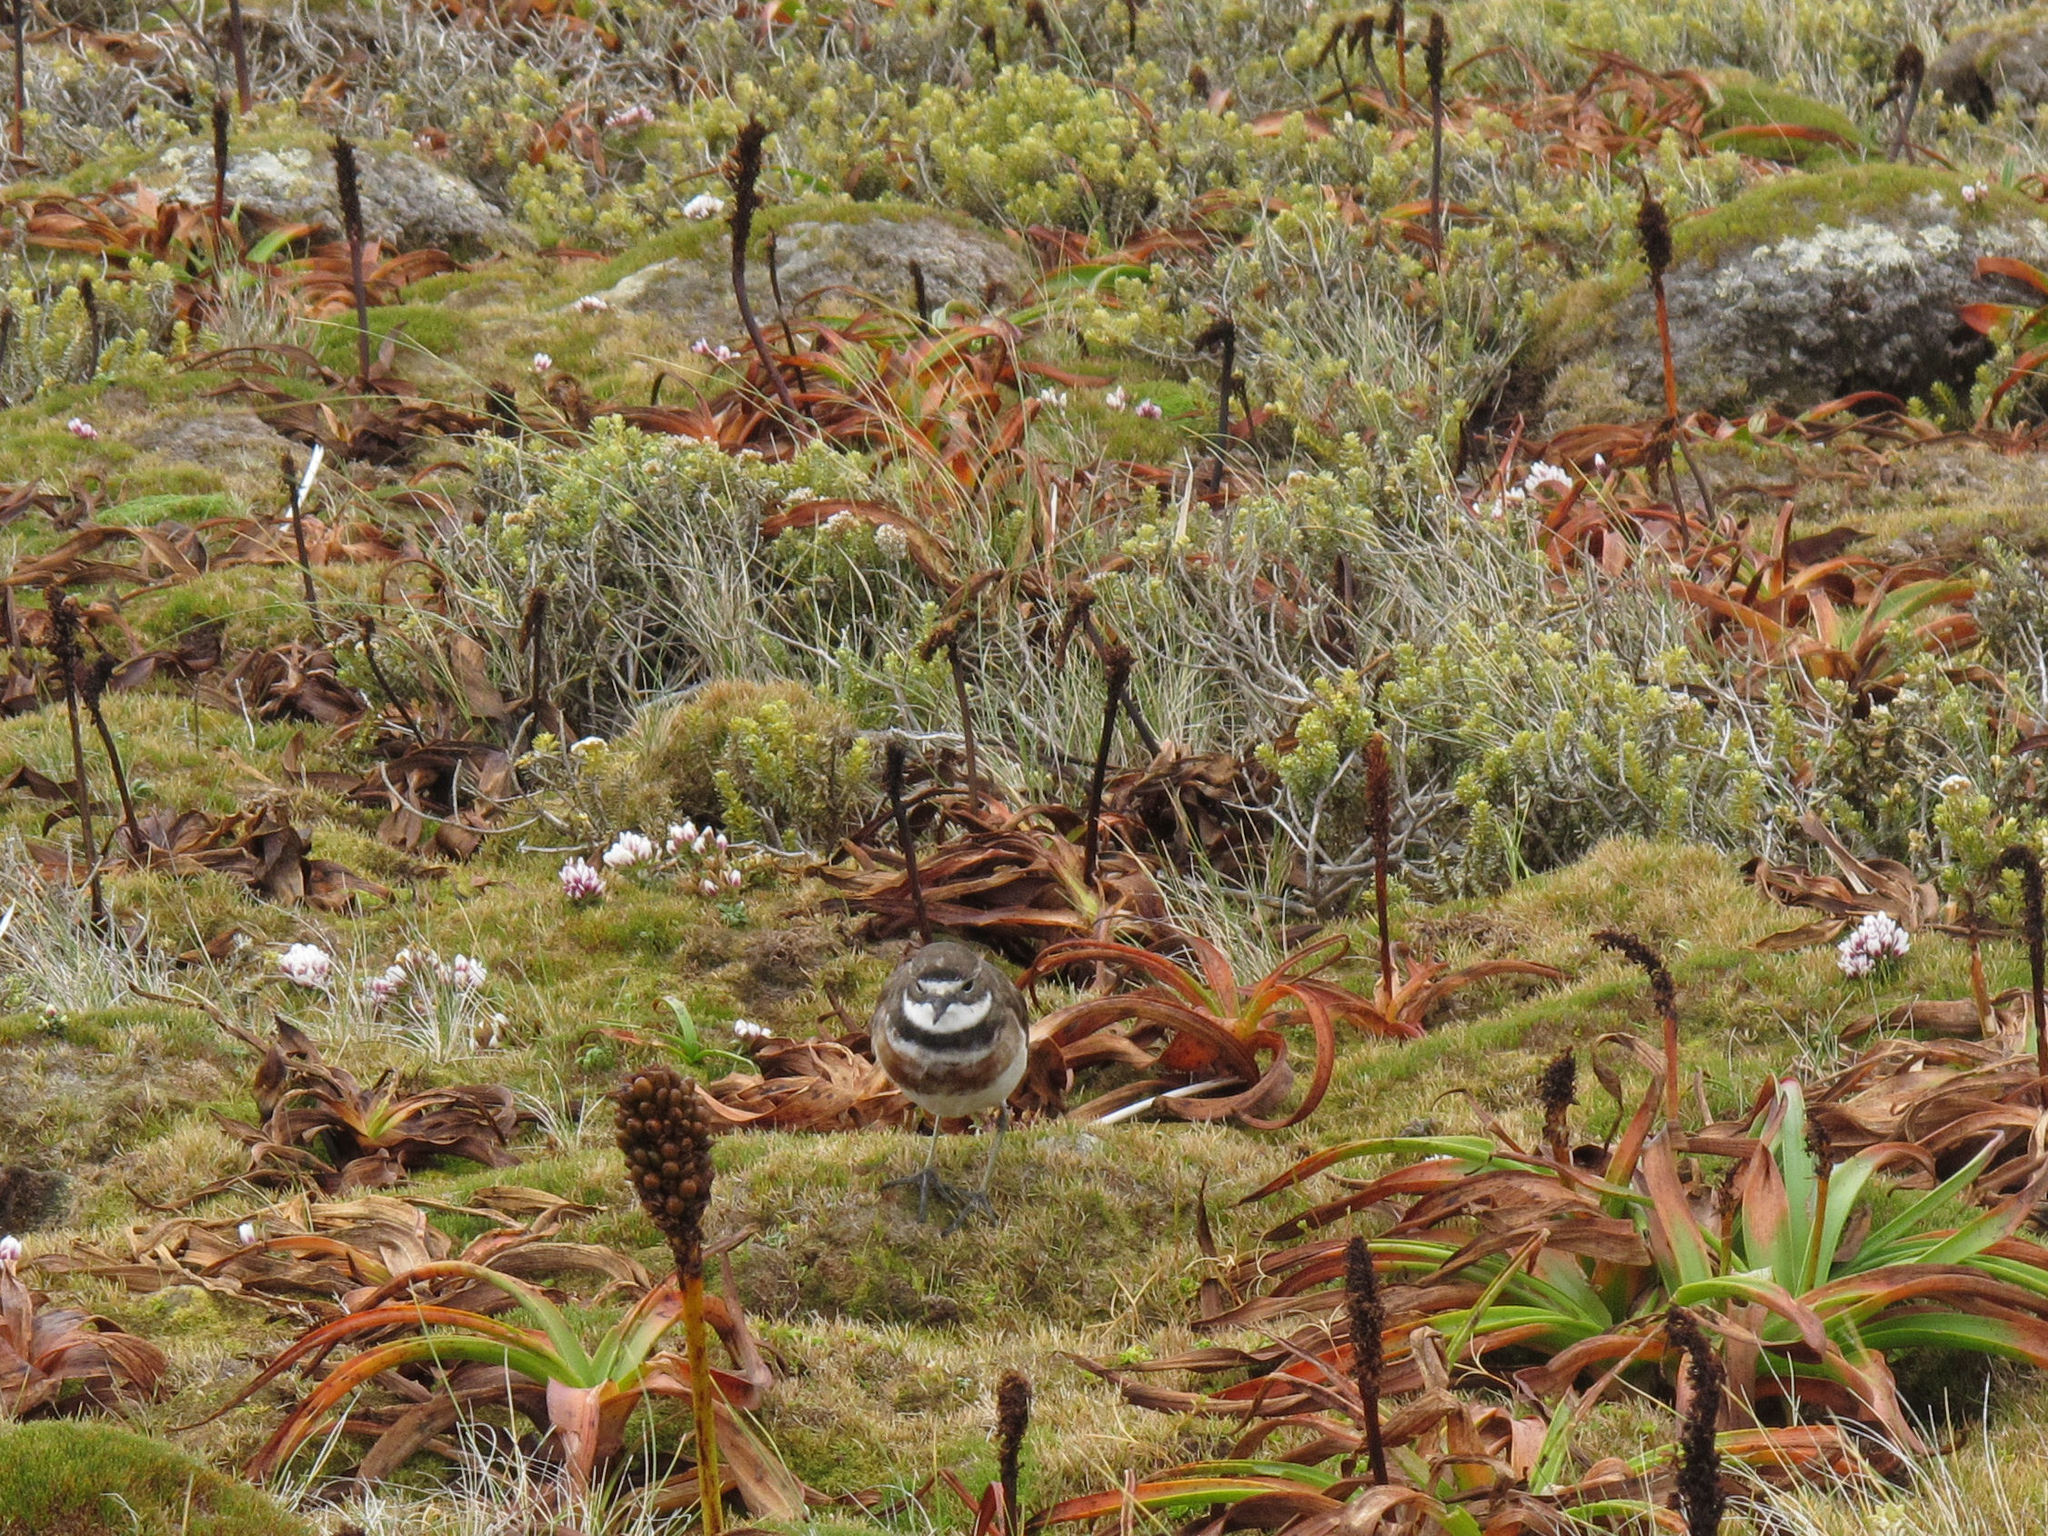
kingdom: Animalia
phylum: Chordata
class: Aves
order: Charadriiformes
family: Charadriidae
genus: Anarhynchus
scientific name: Anarhynchus
